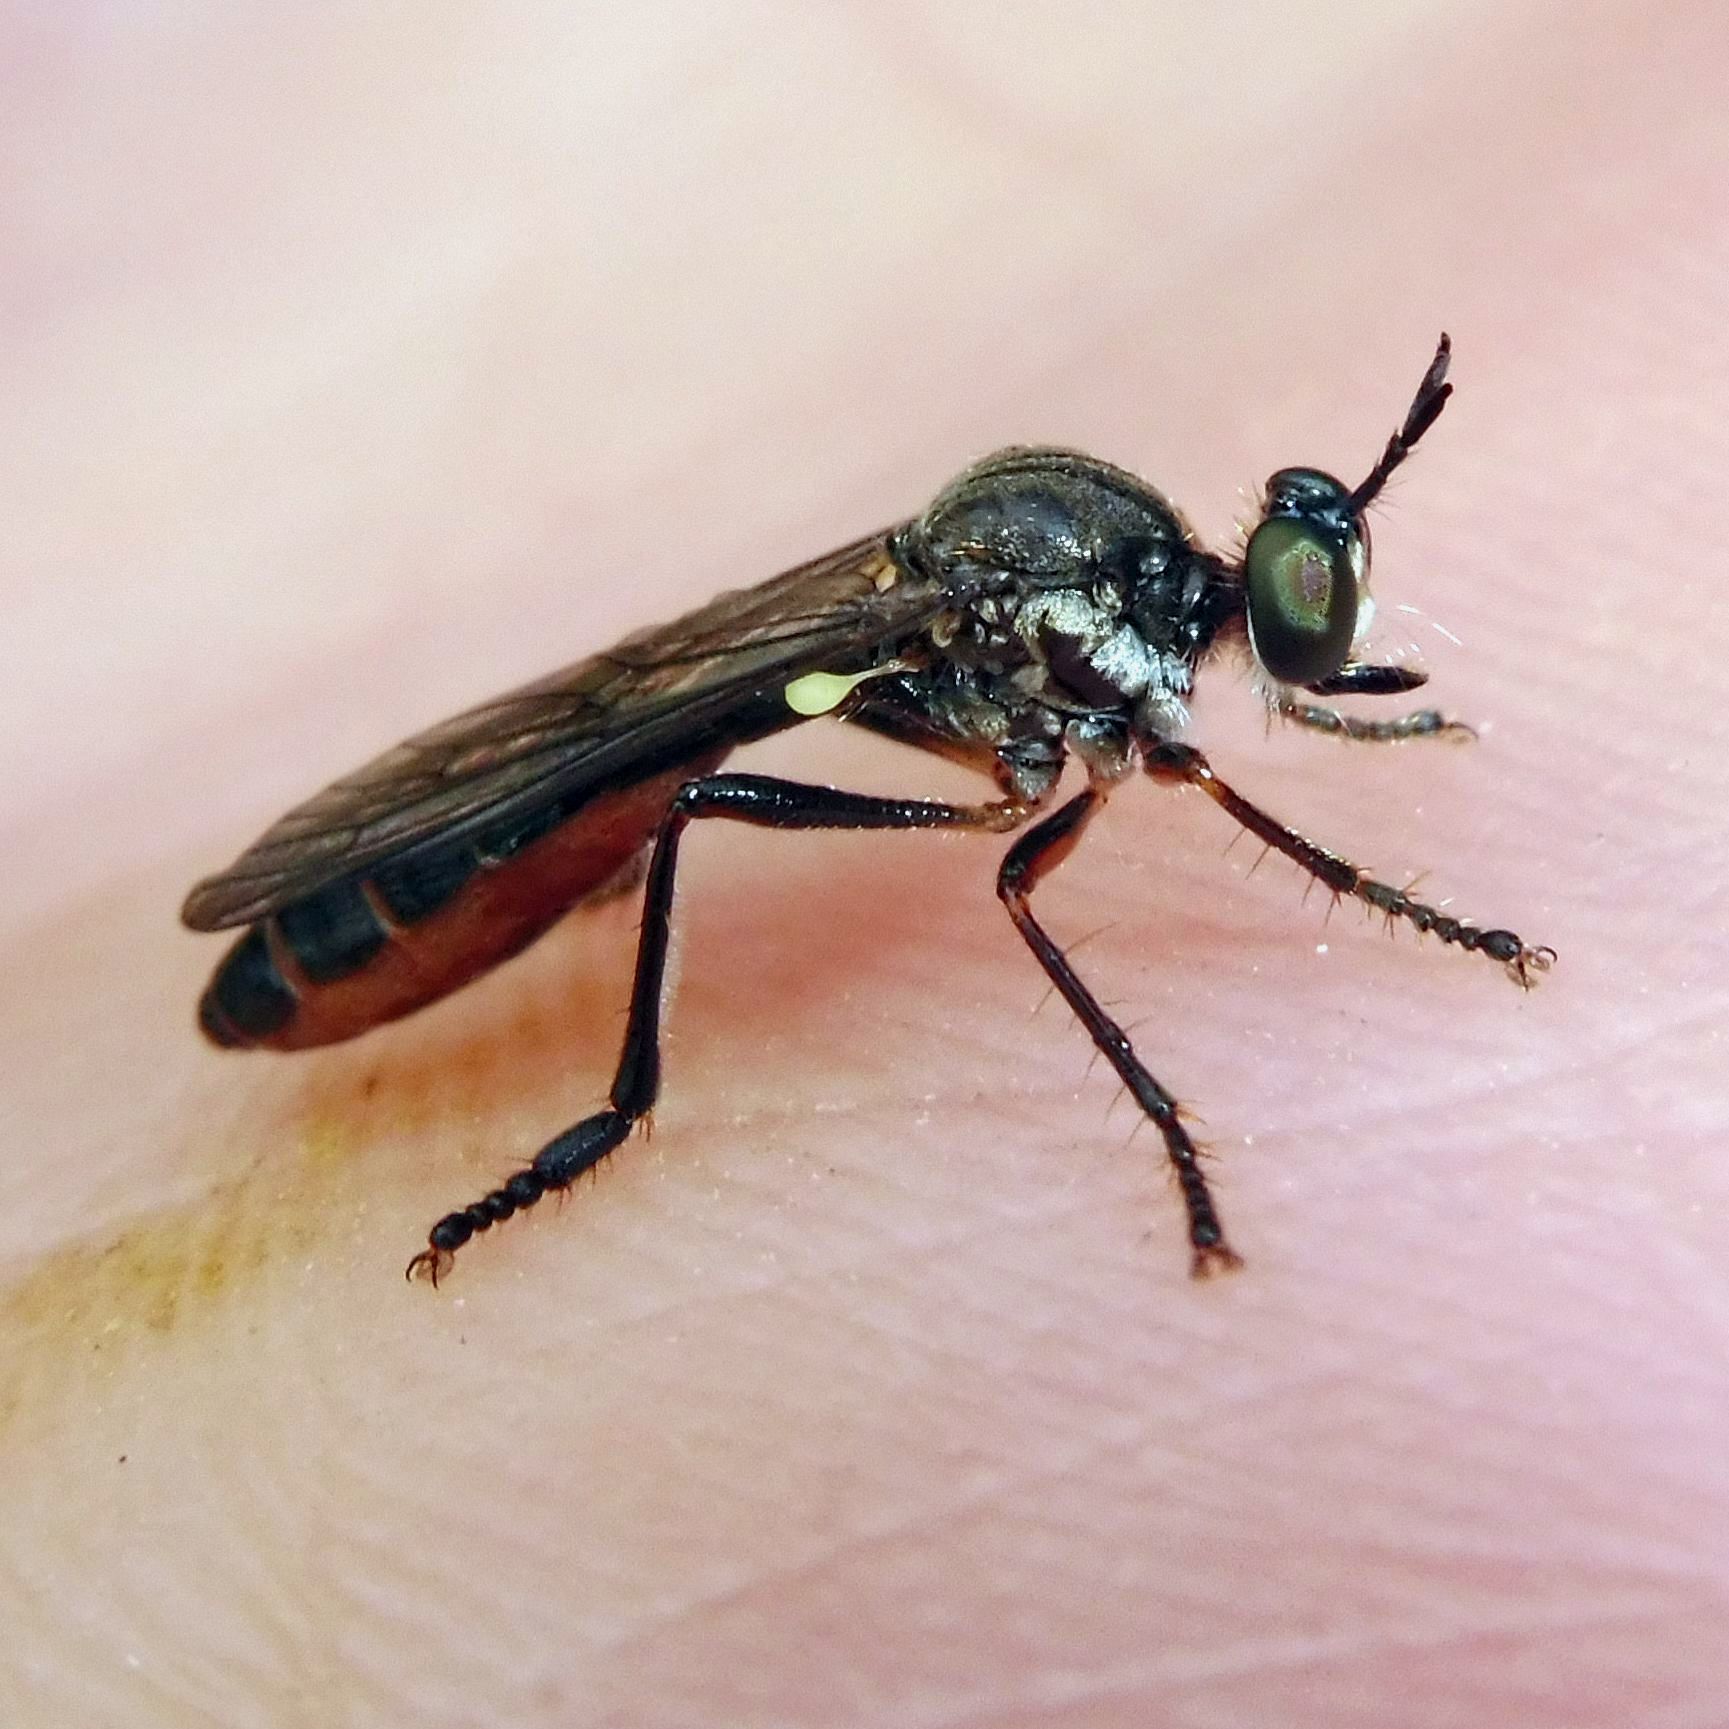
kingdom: Animalia
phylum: Arthropoda
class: Insecta
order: Diptera
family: Asilidae
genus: Dioctria
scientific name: Dioctria hyalipennis
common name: Stripe-legged robberfly
